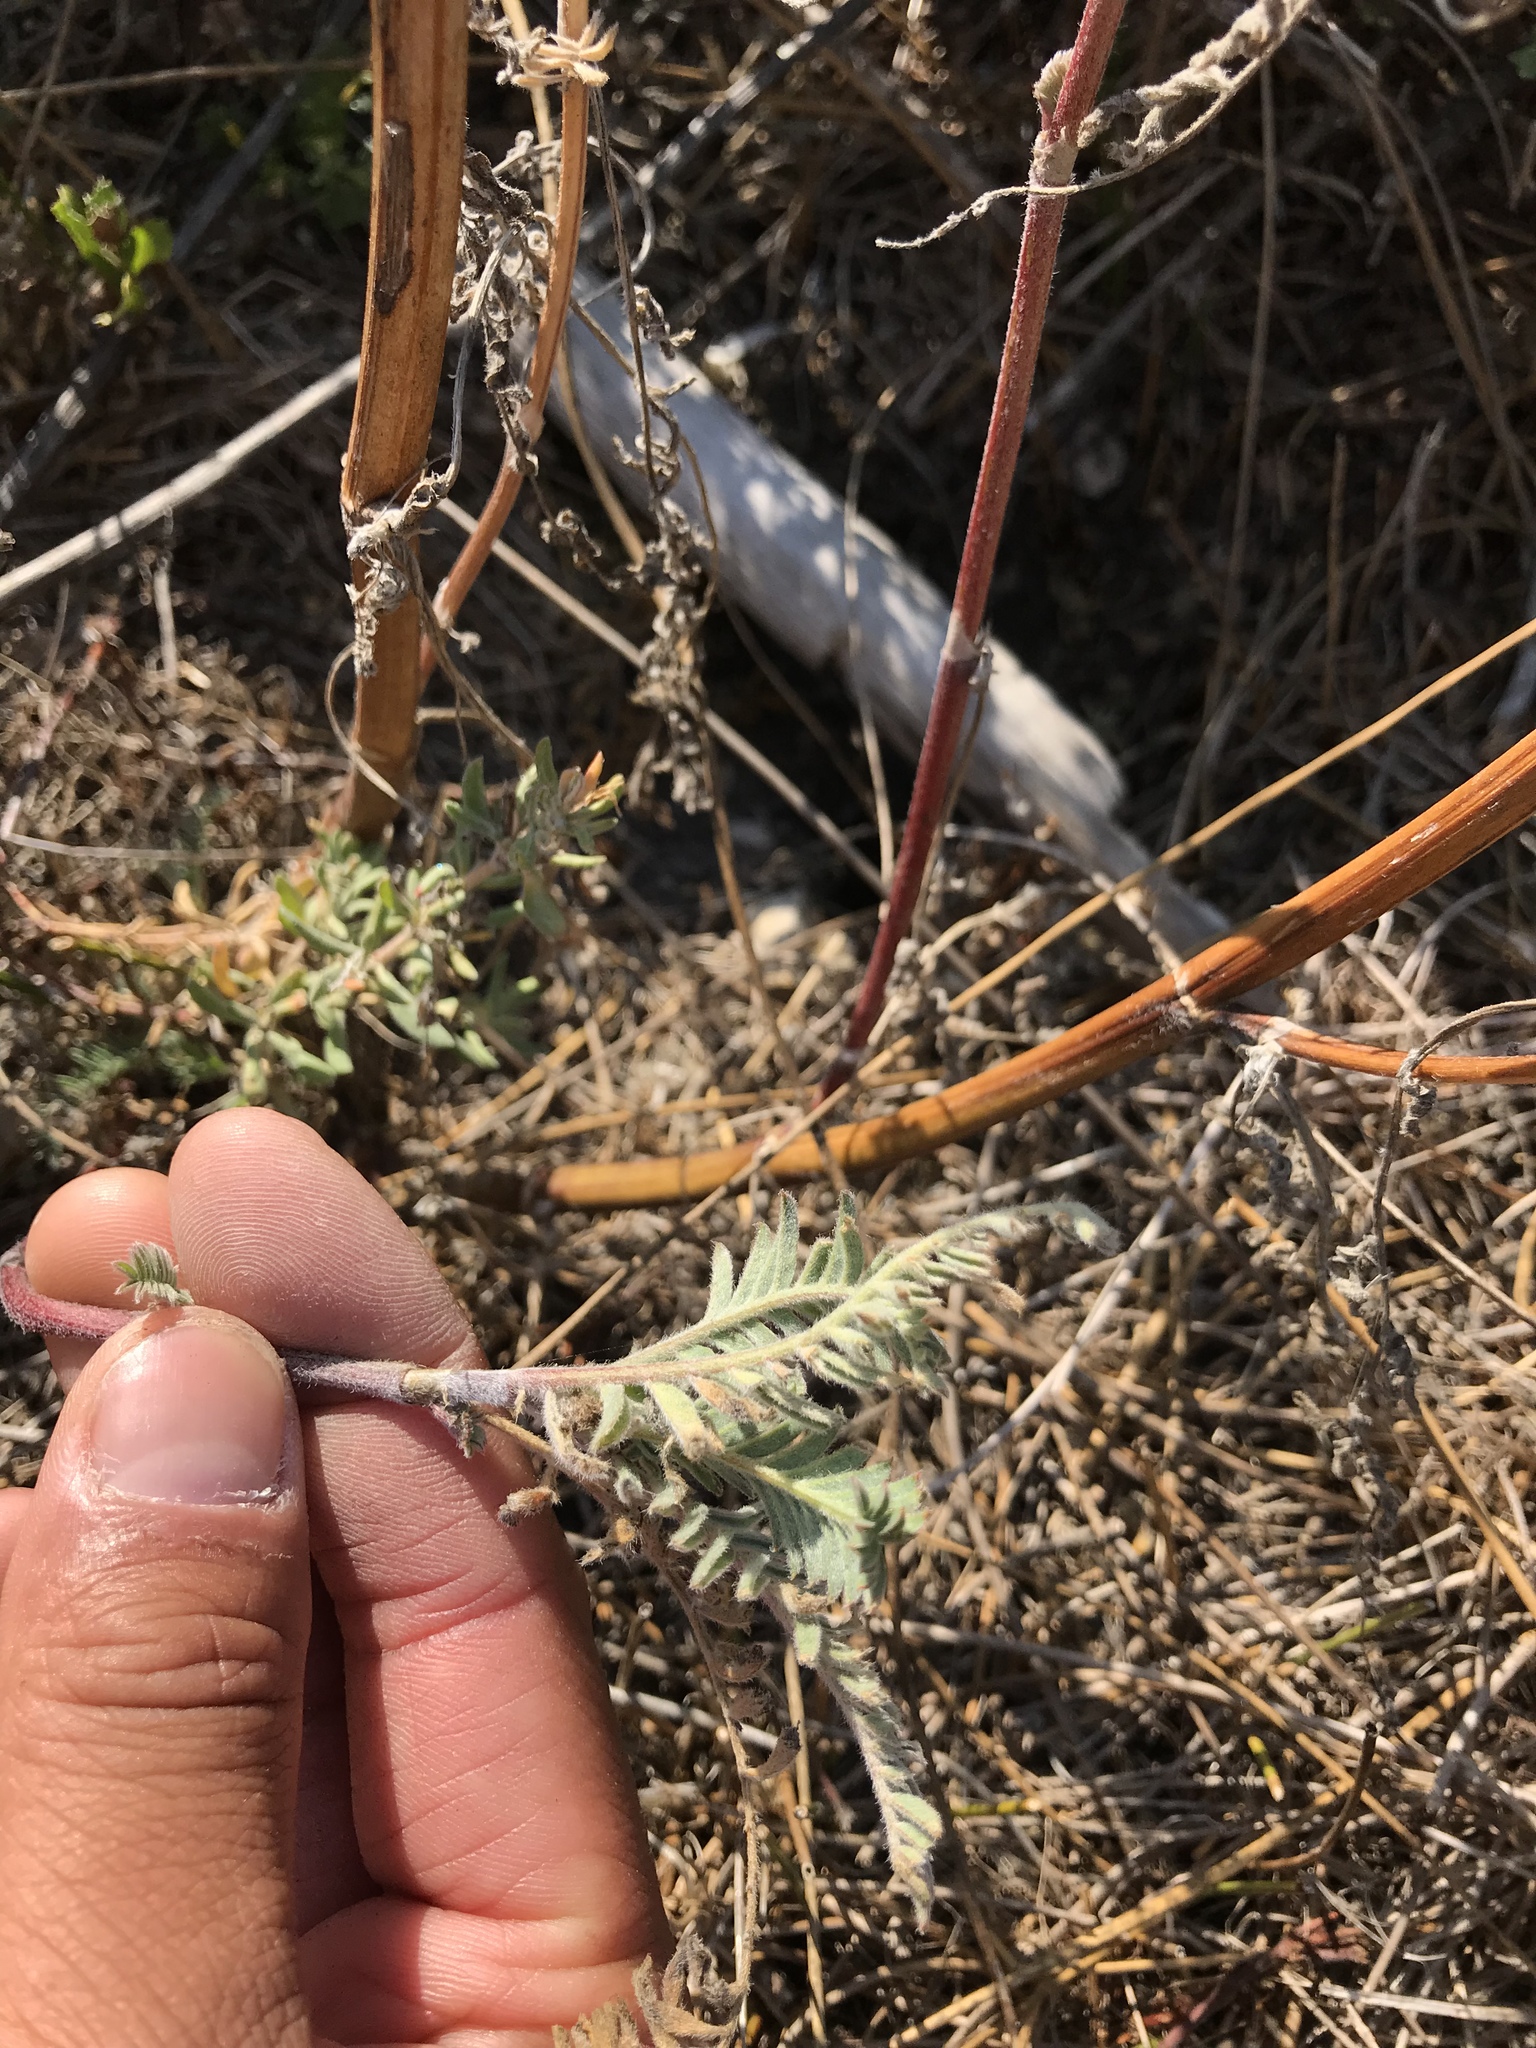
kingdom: Plantae
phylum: Tracheophyta
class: Magnoliopsida
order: Fabales
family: Fabaceae
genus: Astragalus
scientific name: Astragalus pycnostachyus
